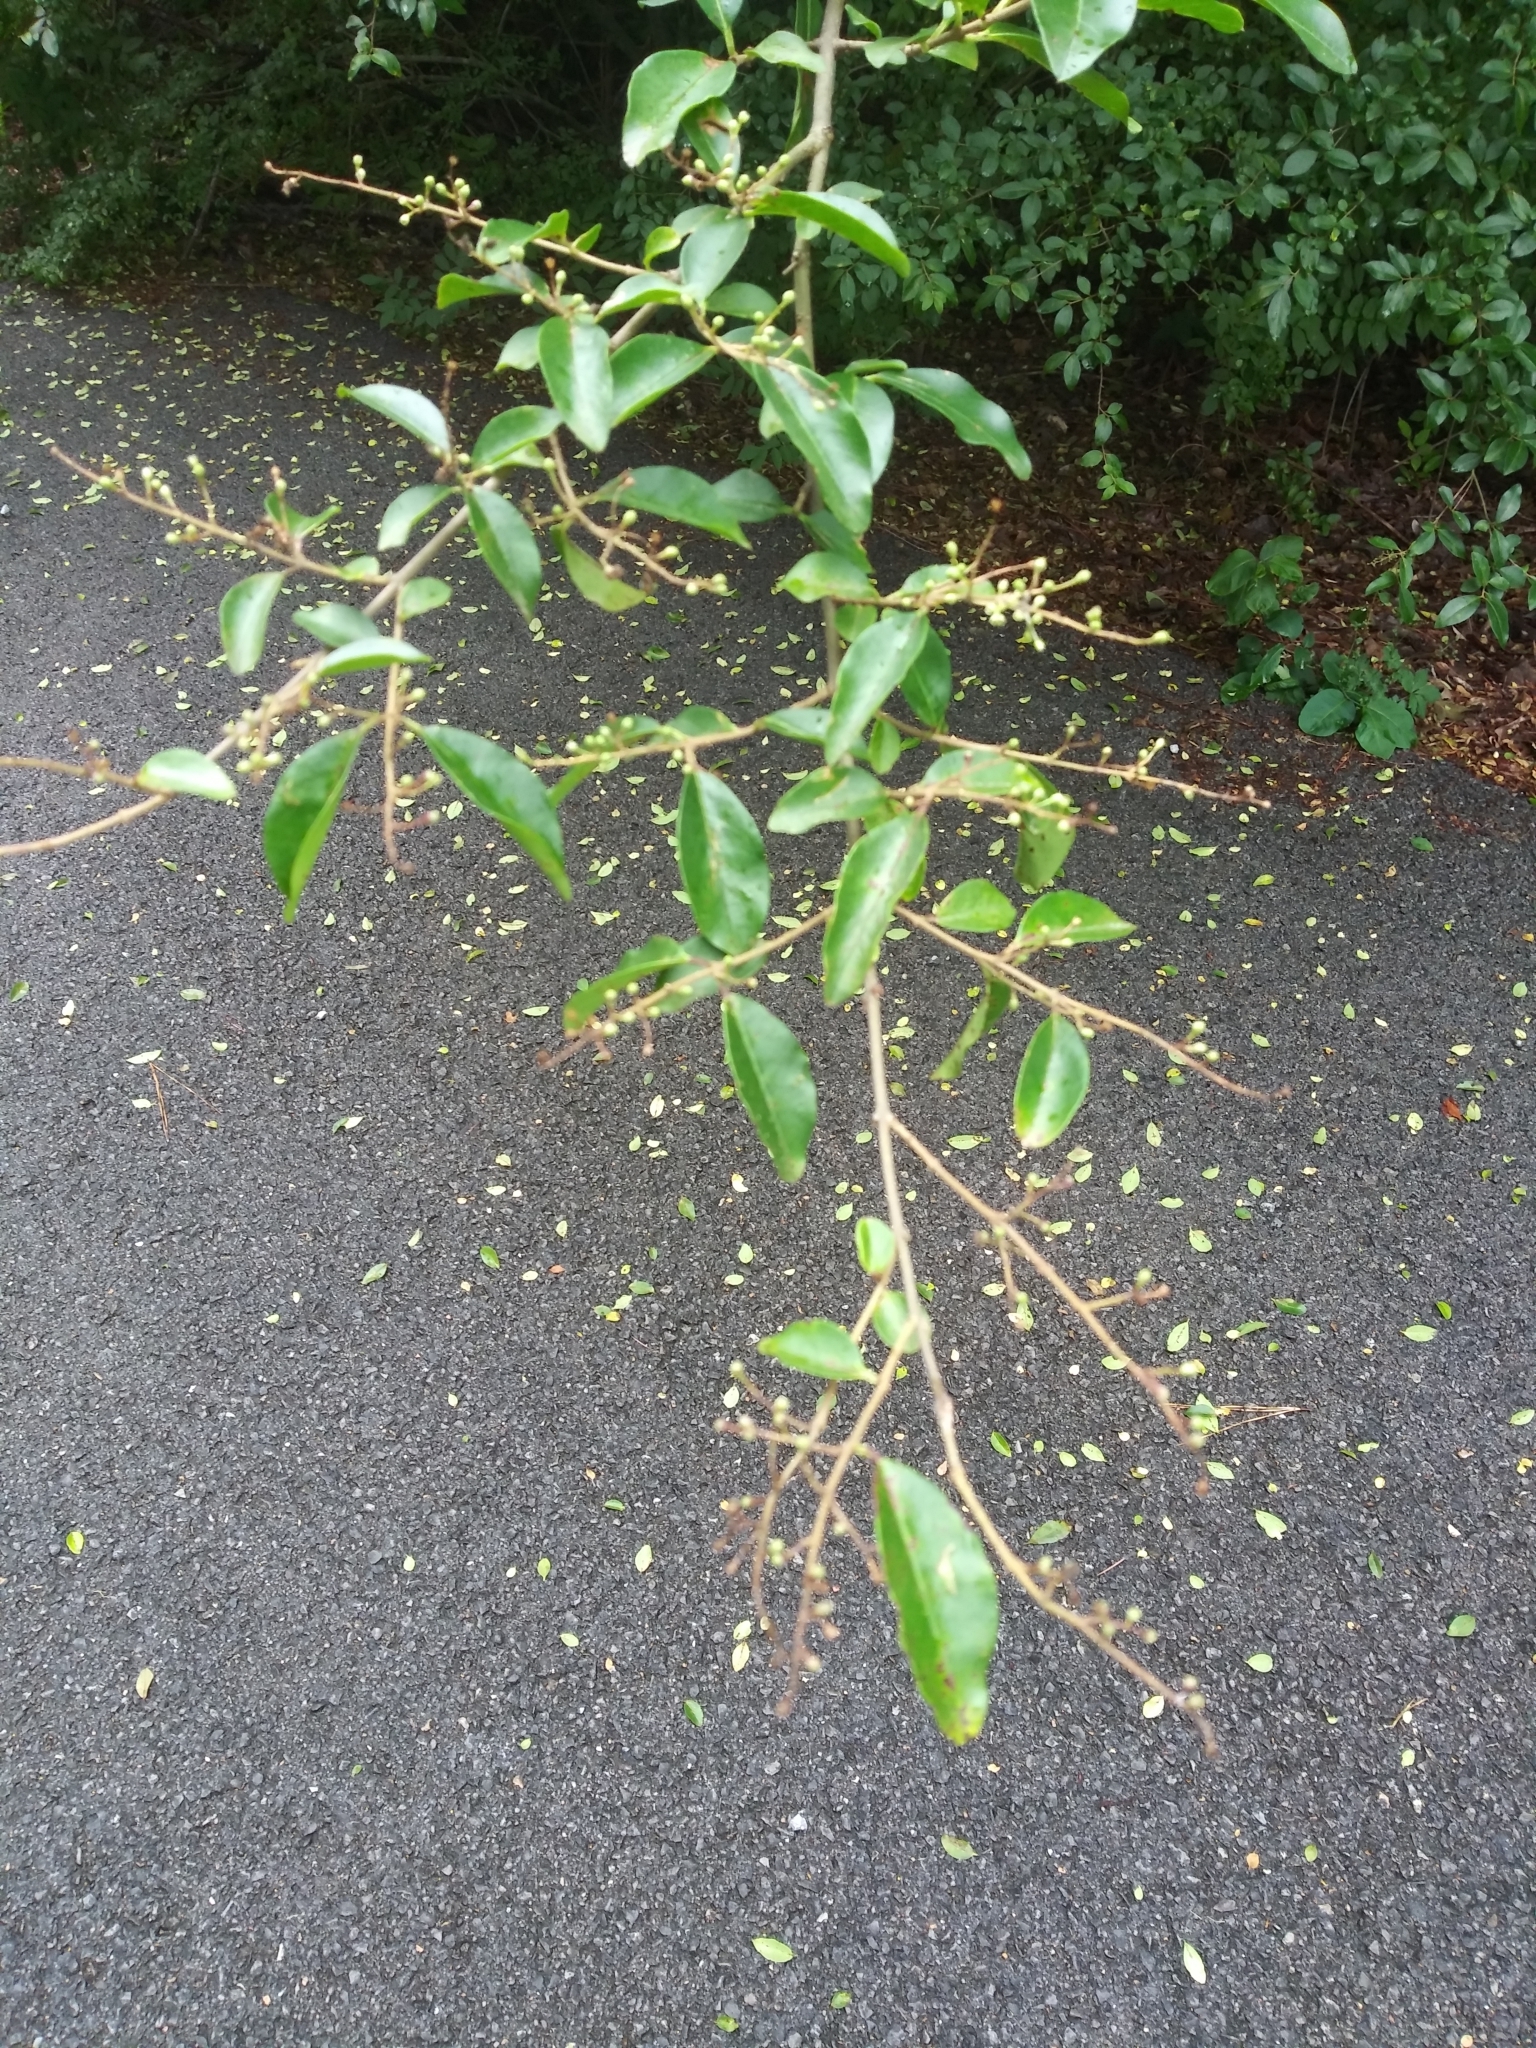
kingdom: Plantae
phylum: Tracheophyta
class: Magnoliopsida
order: Lamiales
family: Oleaceae
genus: Ligustrum
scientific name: Ligustrum sinense
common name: Chinese privet
